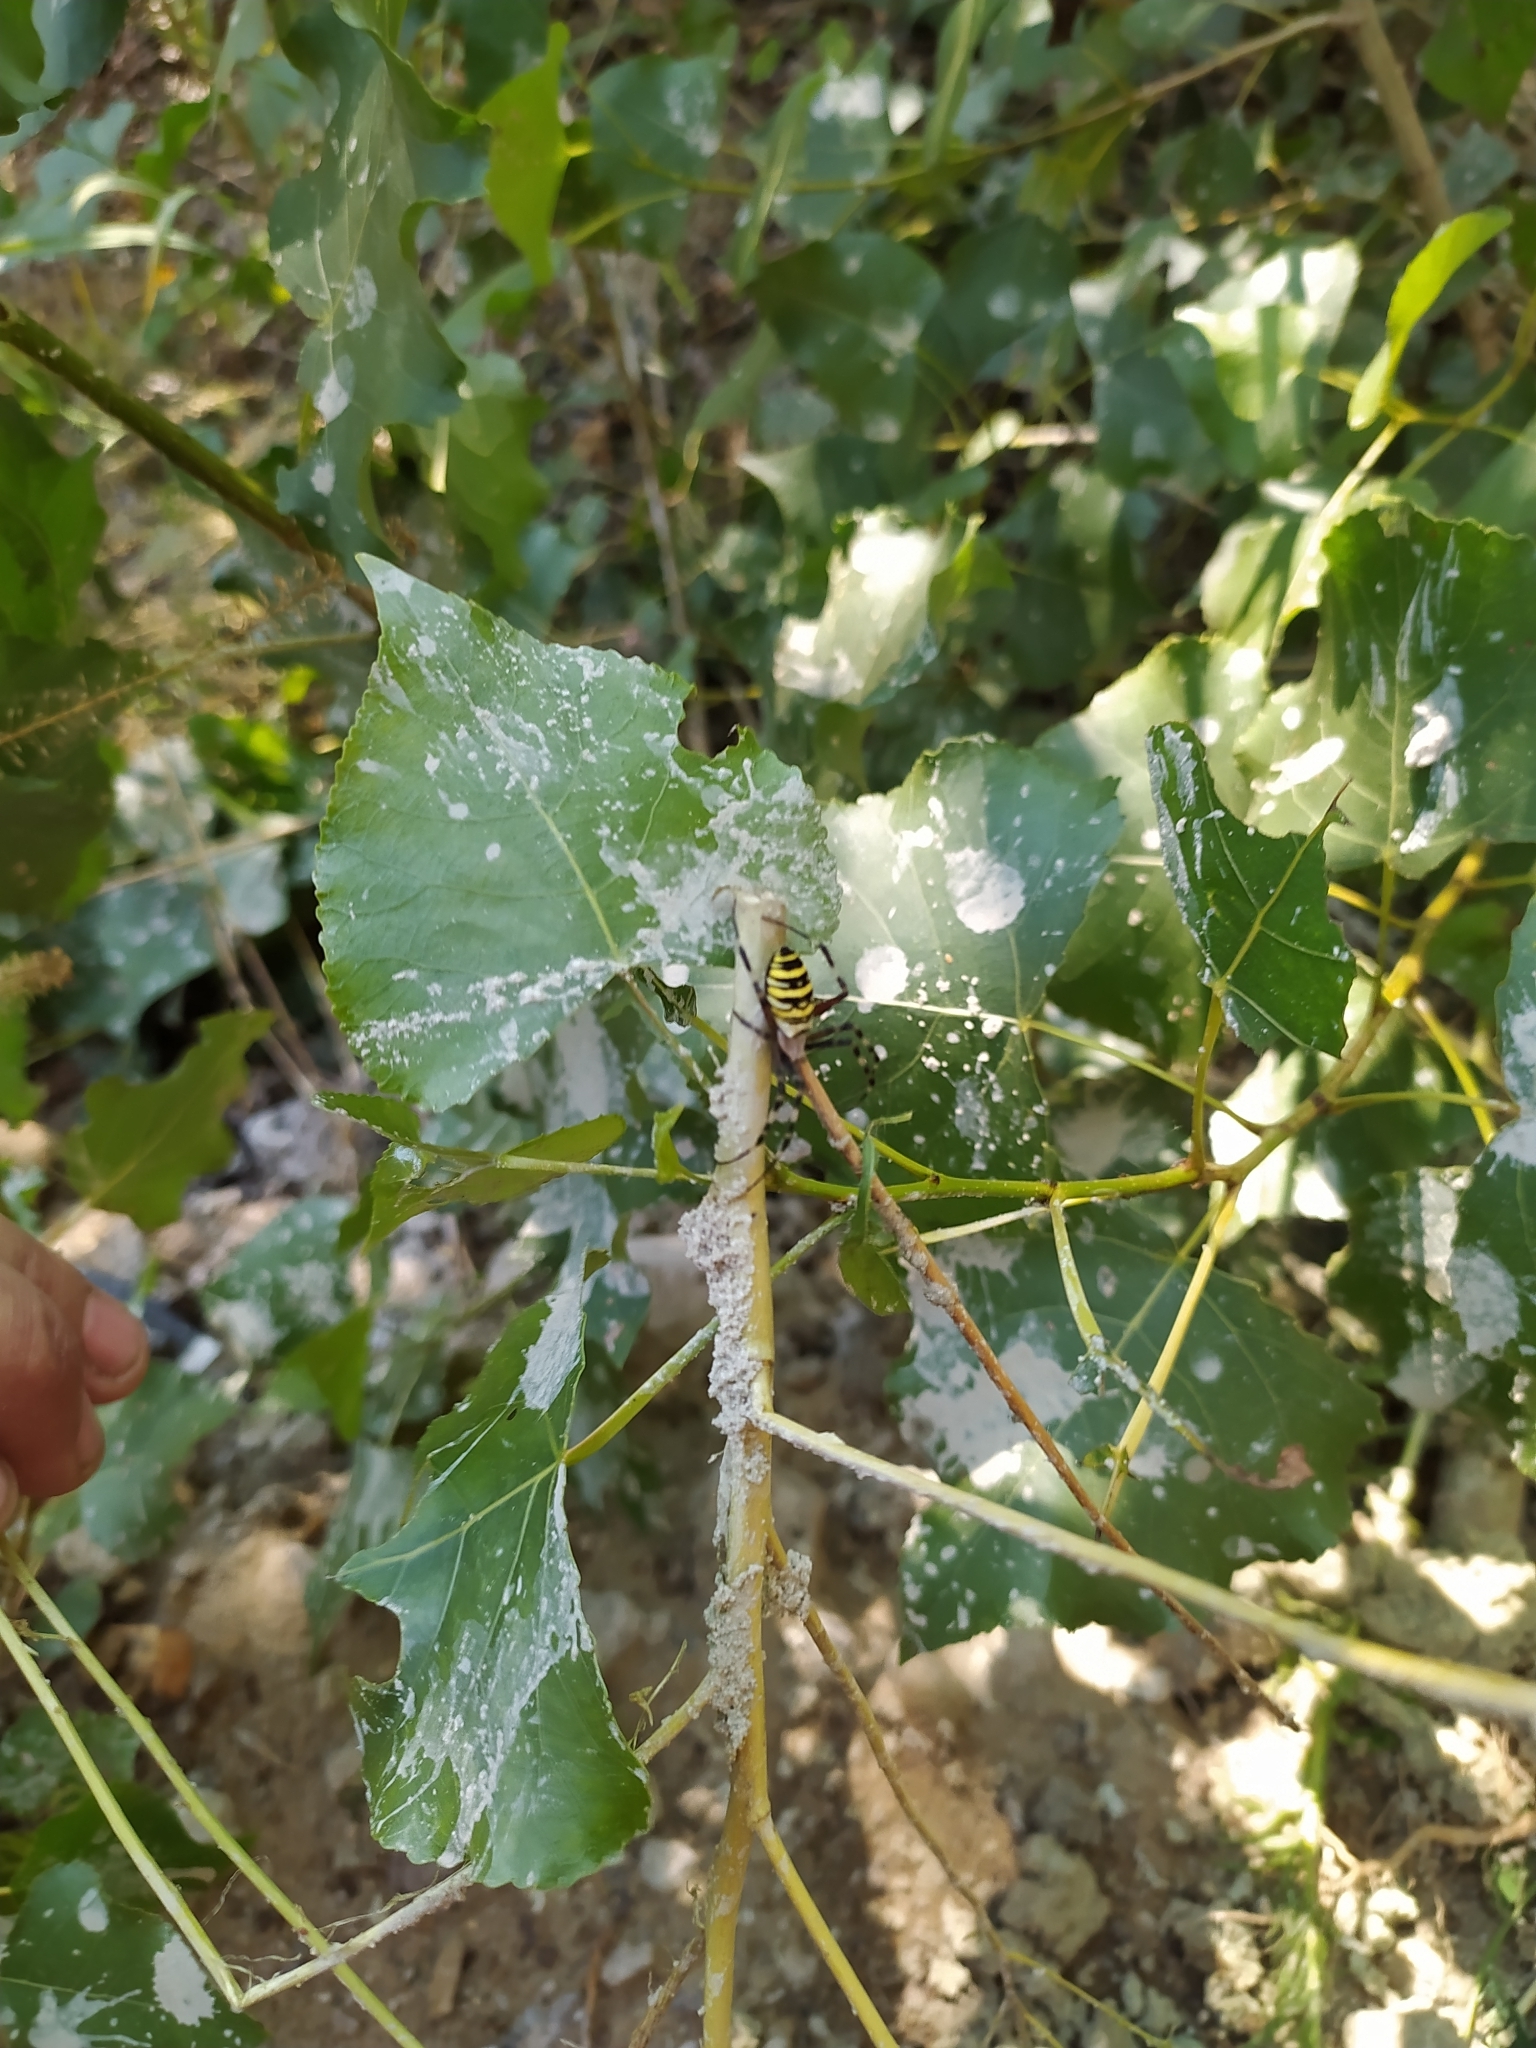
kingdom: Animalia
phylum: Arthropoda
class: Arachnida
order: Araneae
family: Araneidae
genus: Argiope
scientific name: Argiope bruennichi
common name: Wasp spider
